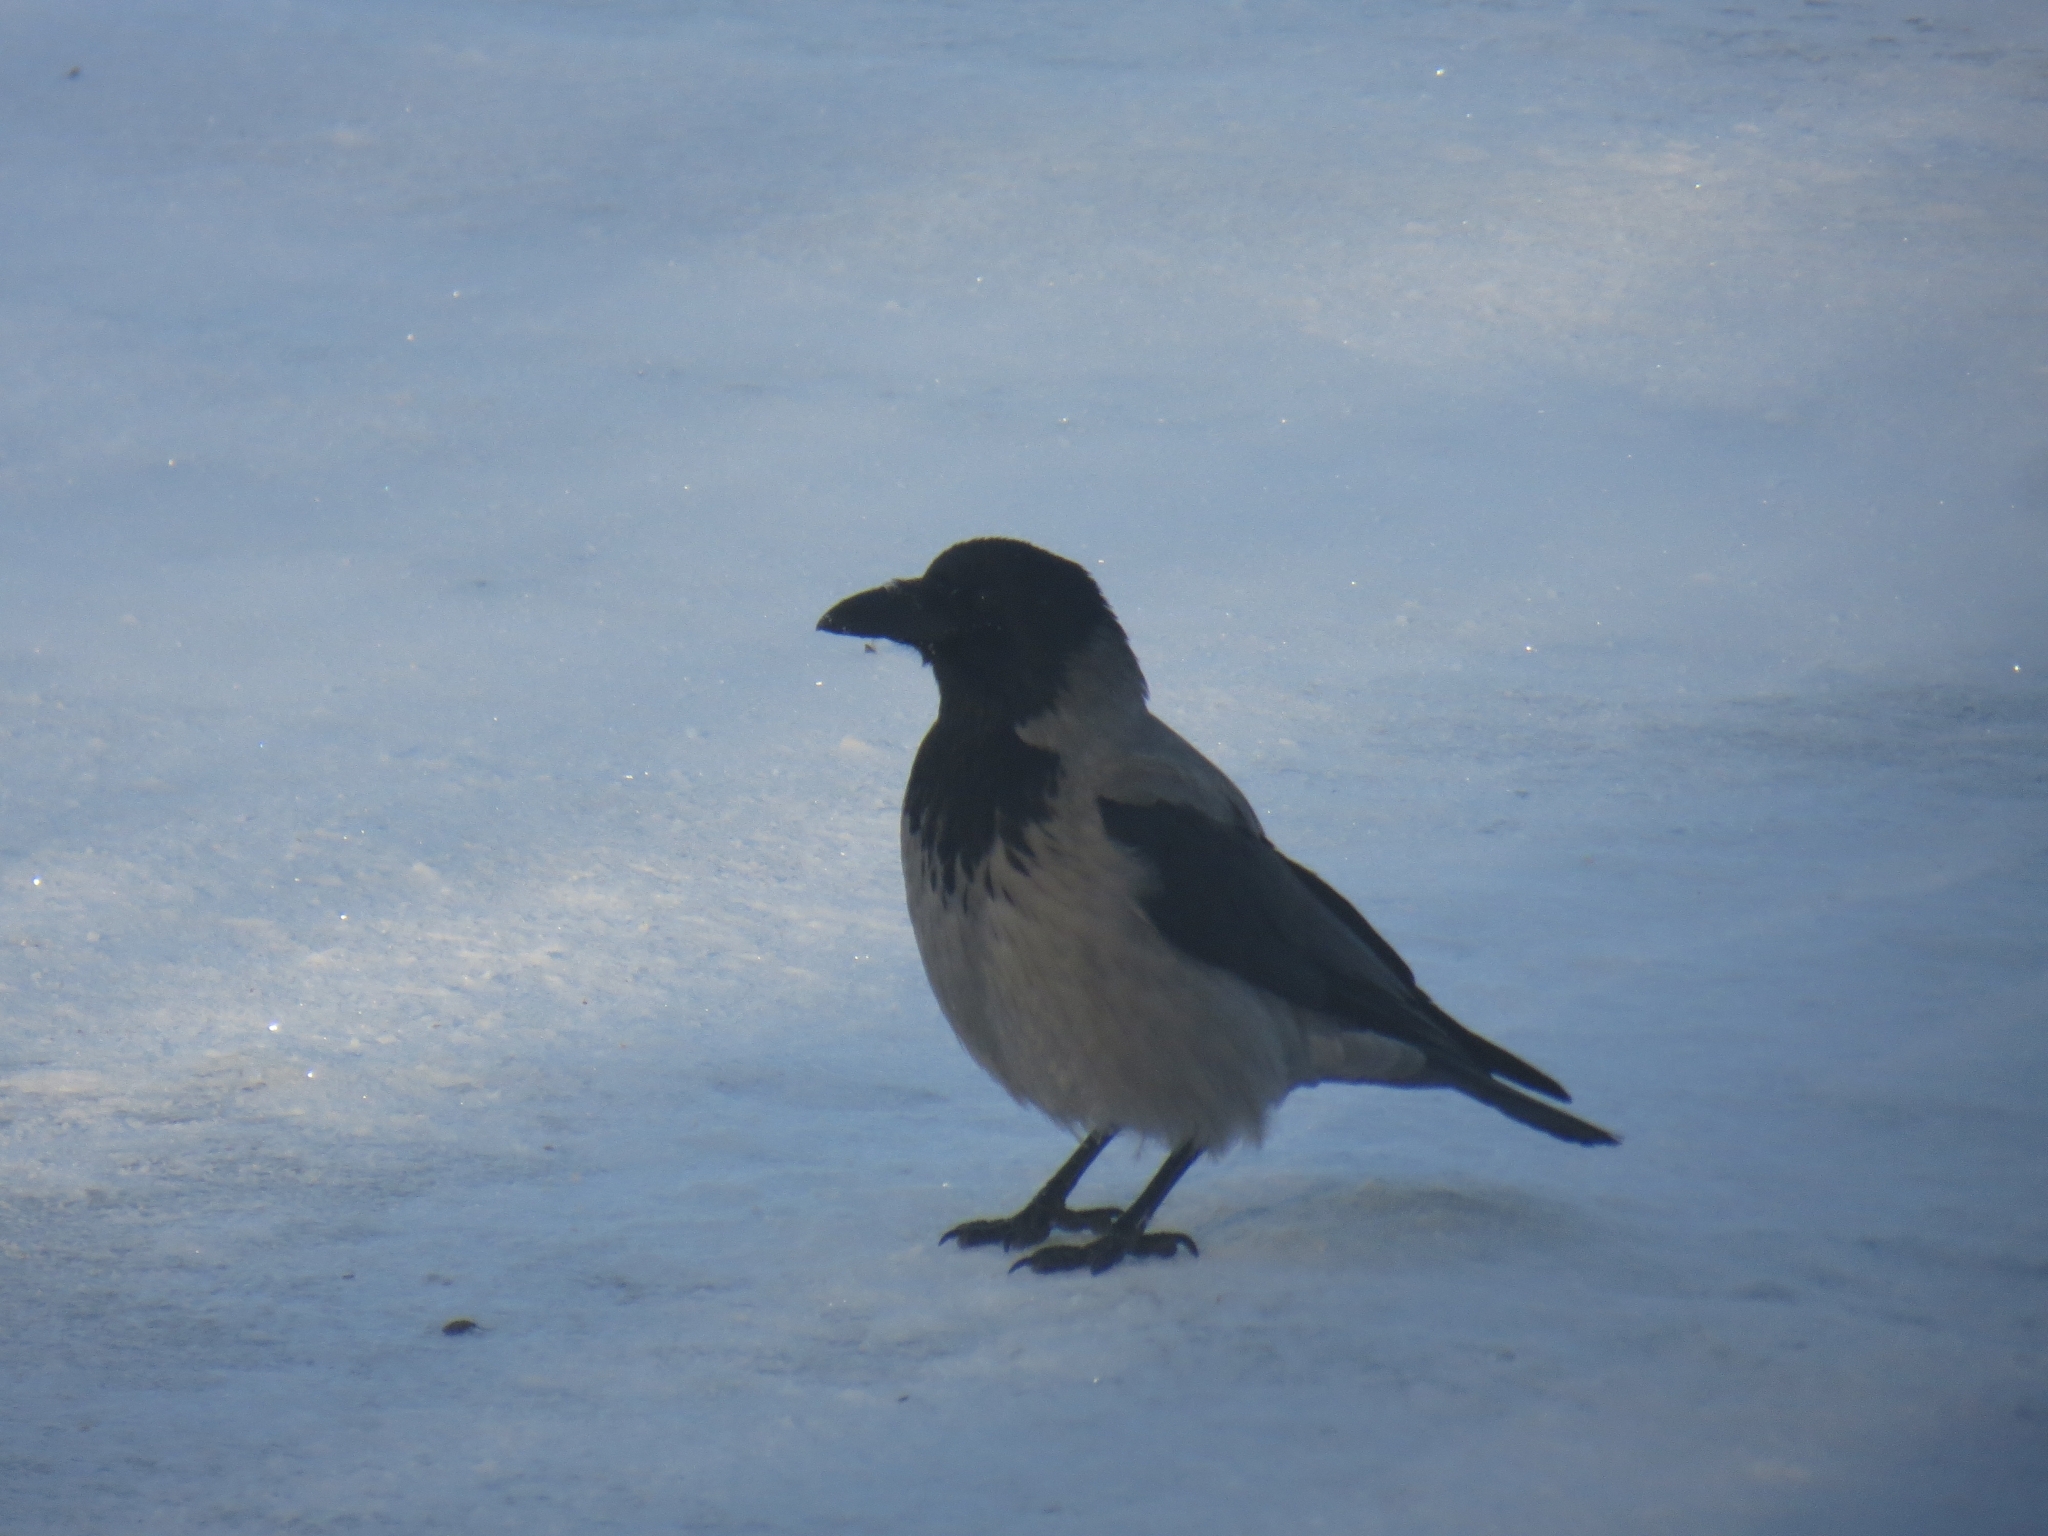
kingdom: Animalia
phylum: Chordata
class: Aves
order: Passeriformes
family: Corvidae
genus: Corvus
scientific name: Corvus cornix
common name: Hooded crow
